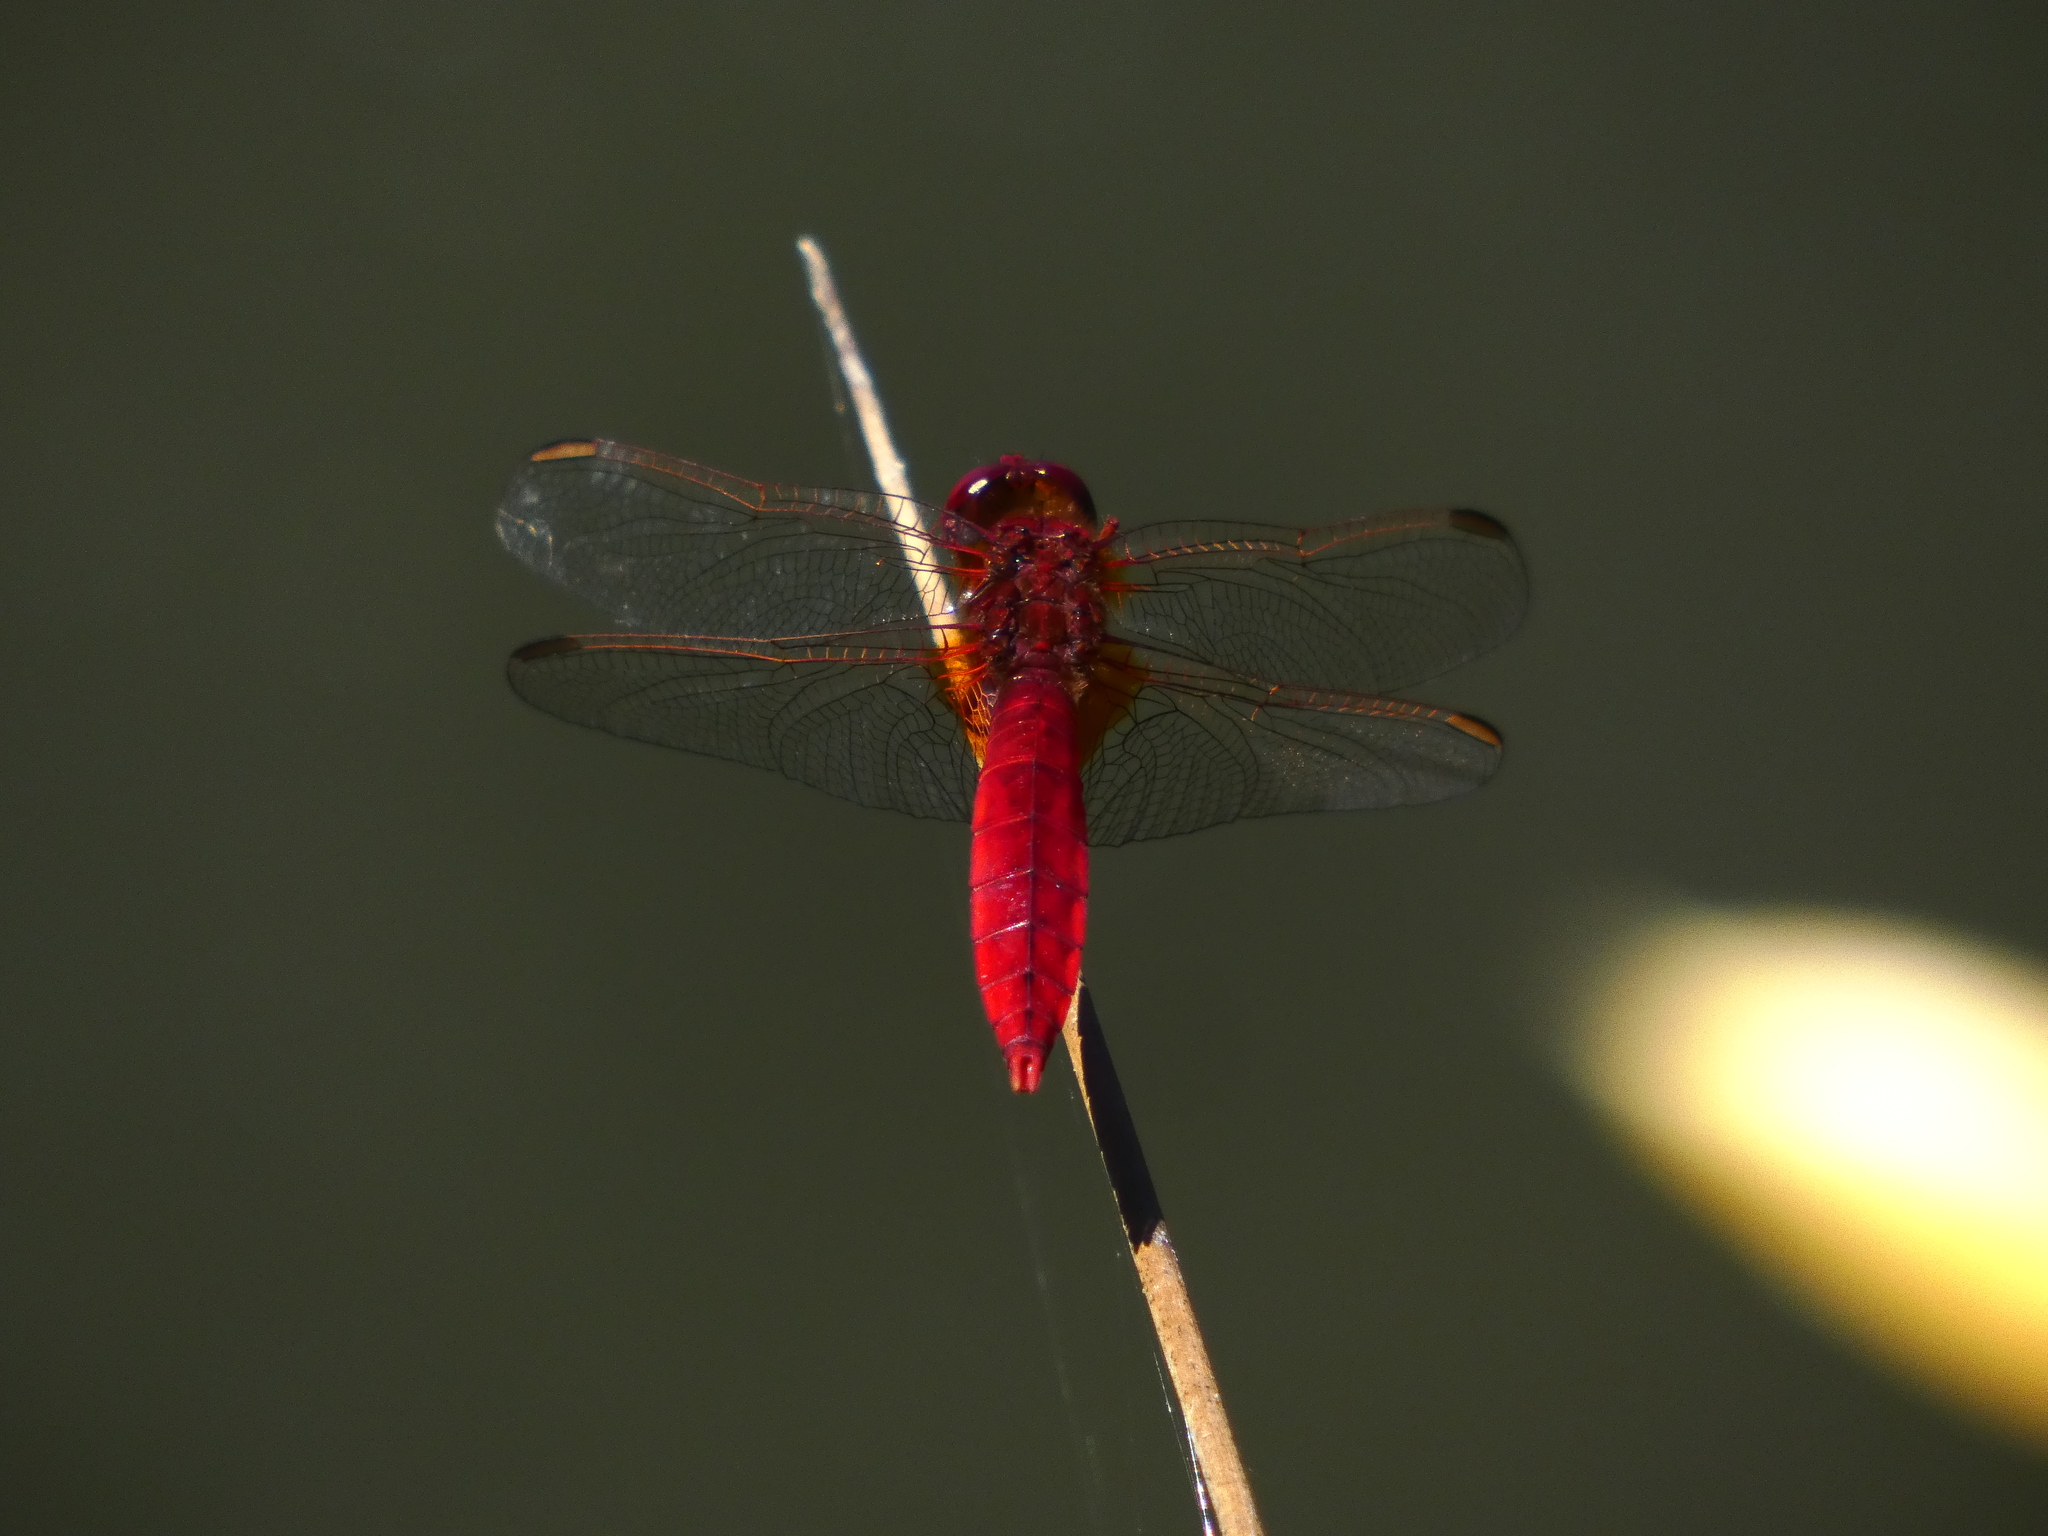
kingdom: Animalia
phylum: Arthropoda
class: Insecta
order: Odonata
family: Libellulidae
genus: Crocothemis
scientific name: Crocothemis erythraea
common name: Scarlet dragonfly
